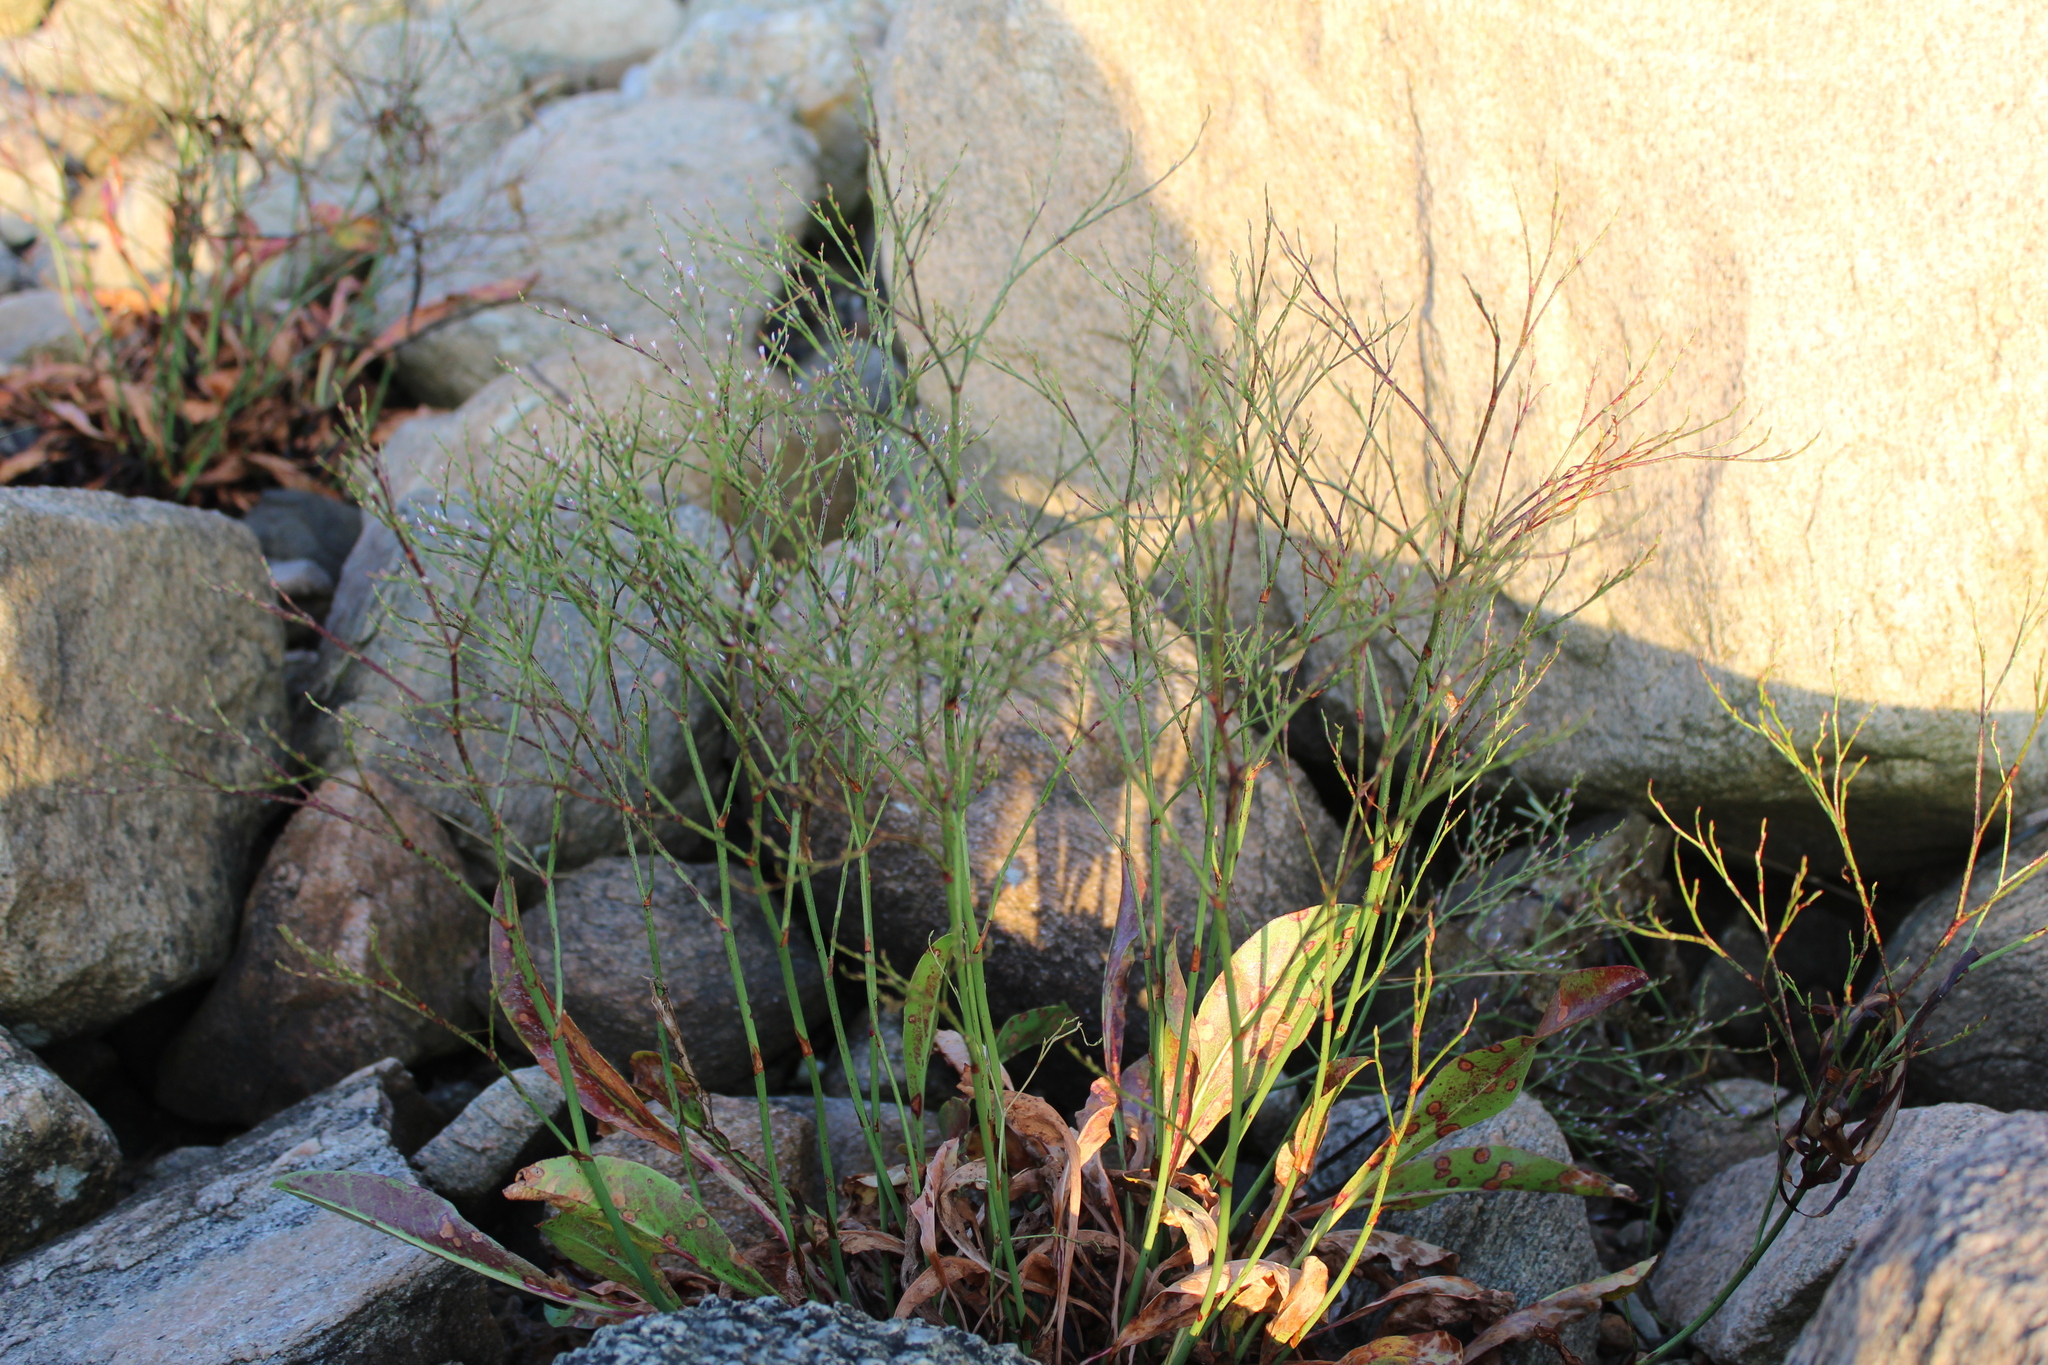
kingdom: Plantae
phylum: Tracheophyta
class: Magnoliopsida
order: Caryophyllales
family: Plumbaginaceae
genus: Limonium
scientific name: Limonium carolinianum
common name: Carolina sea lavender
